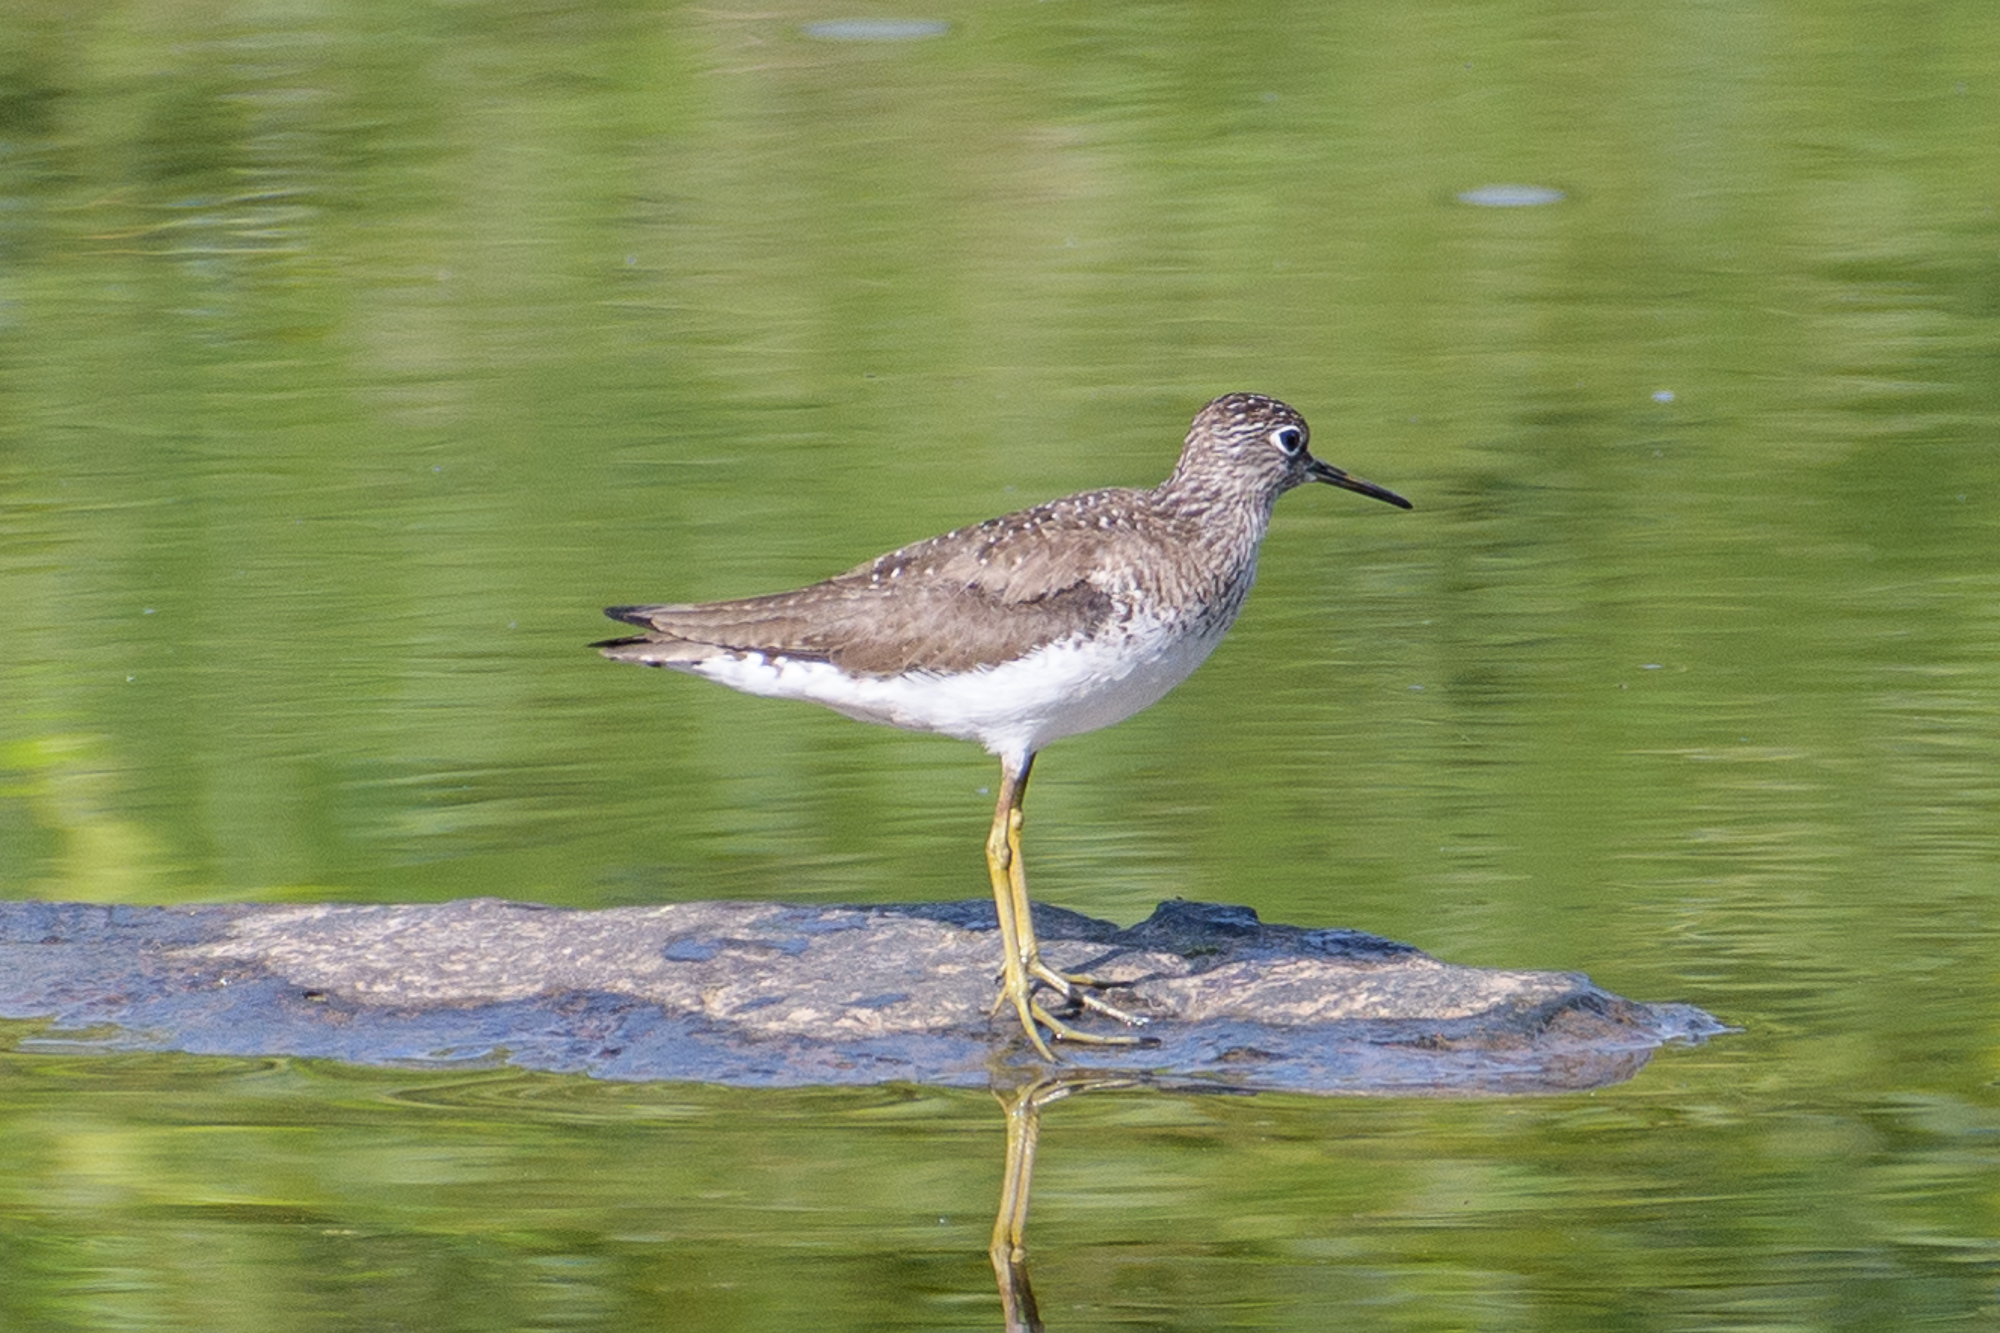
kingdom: Animalia
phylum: Chordata
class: Aves
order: Charadriiformes
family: Scolopacidae
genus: Tringa
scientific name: Tringa solitaria
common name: Solitary sandpiper
